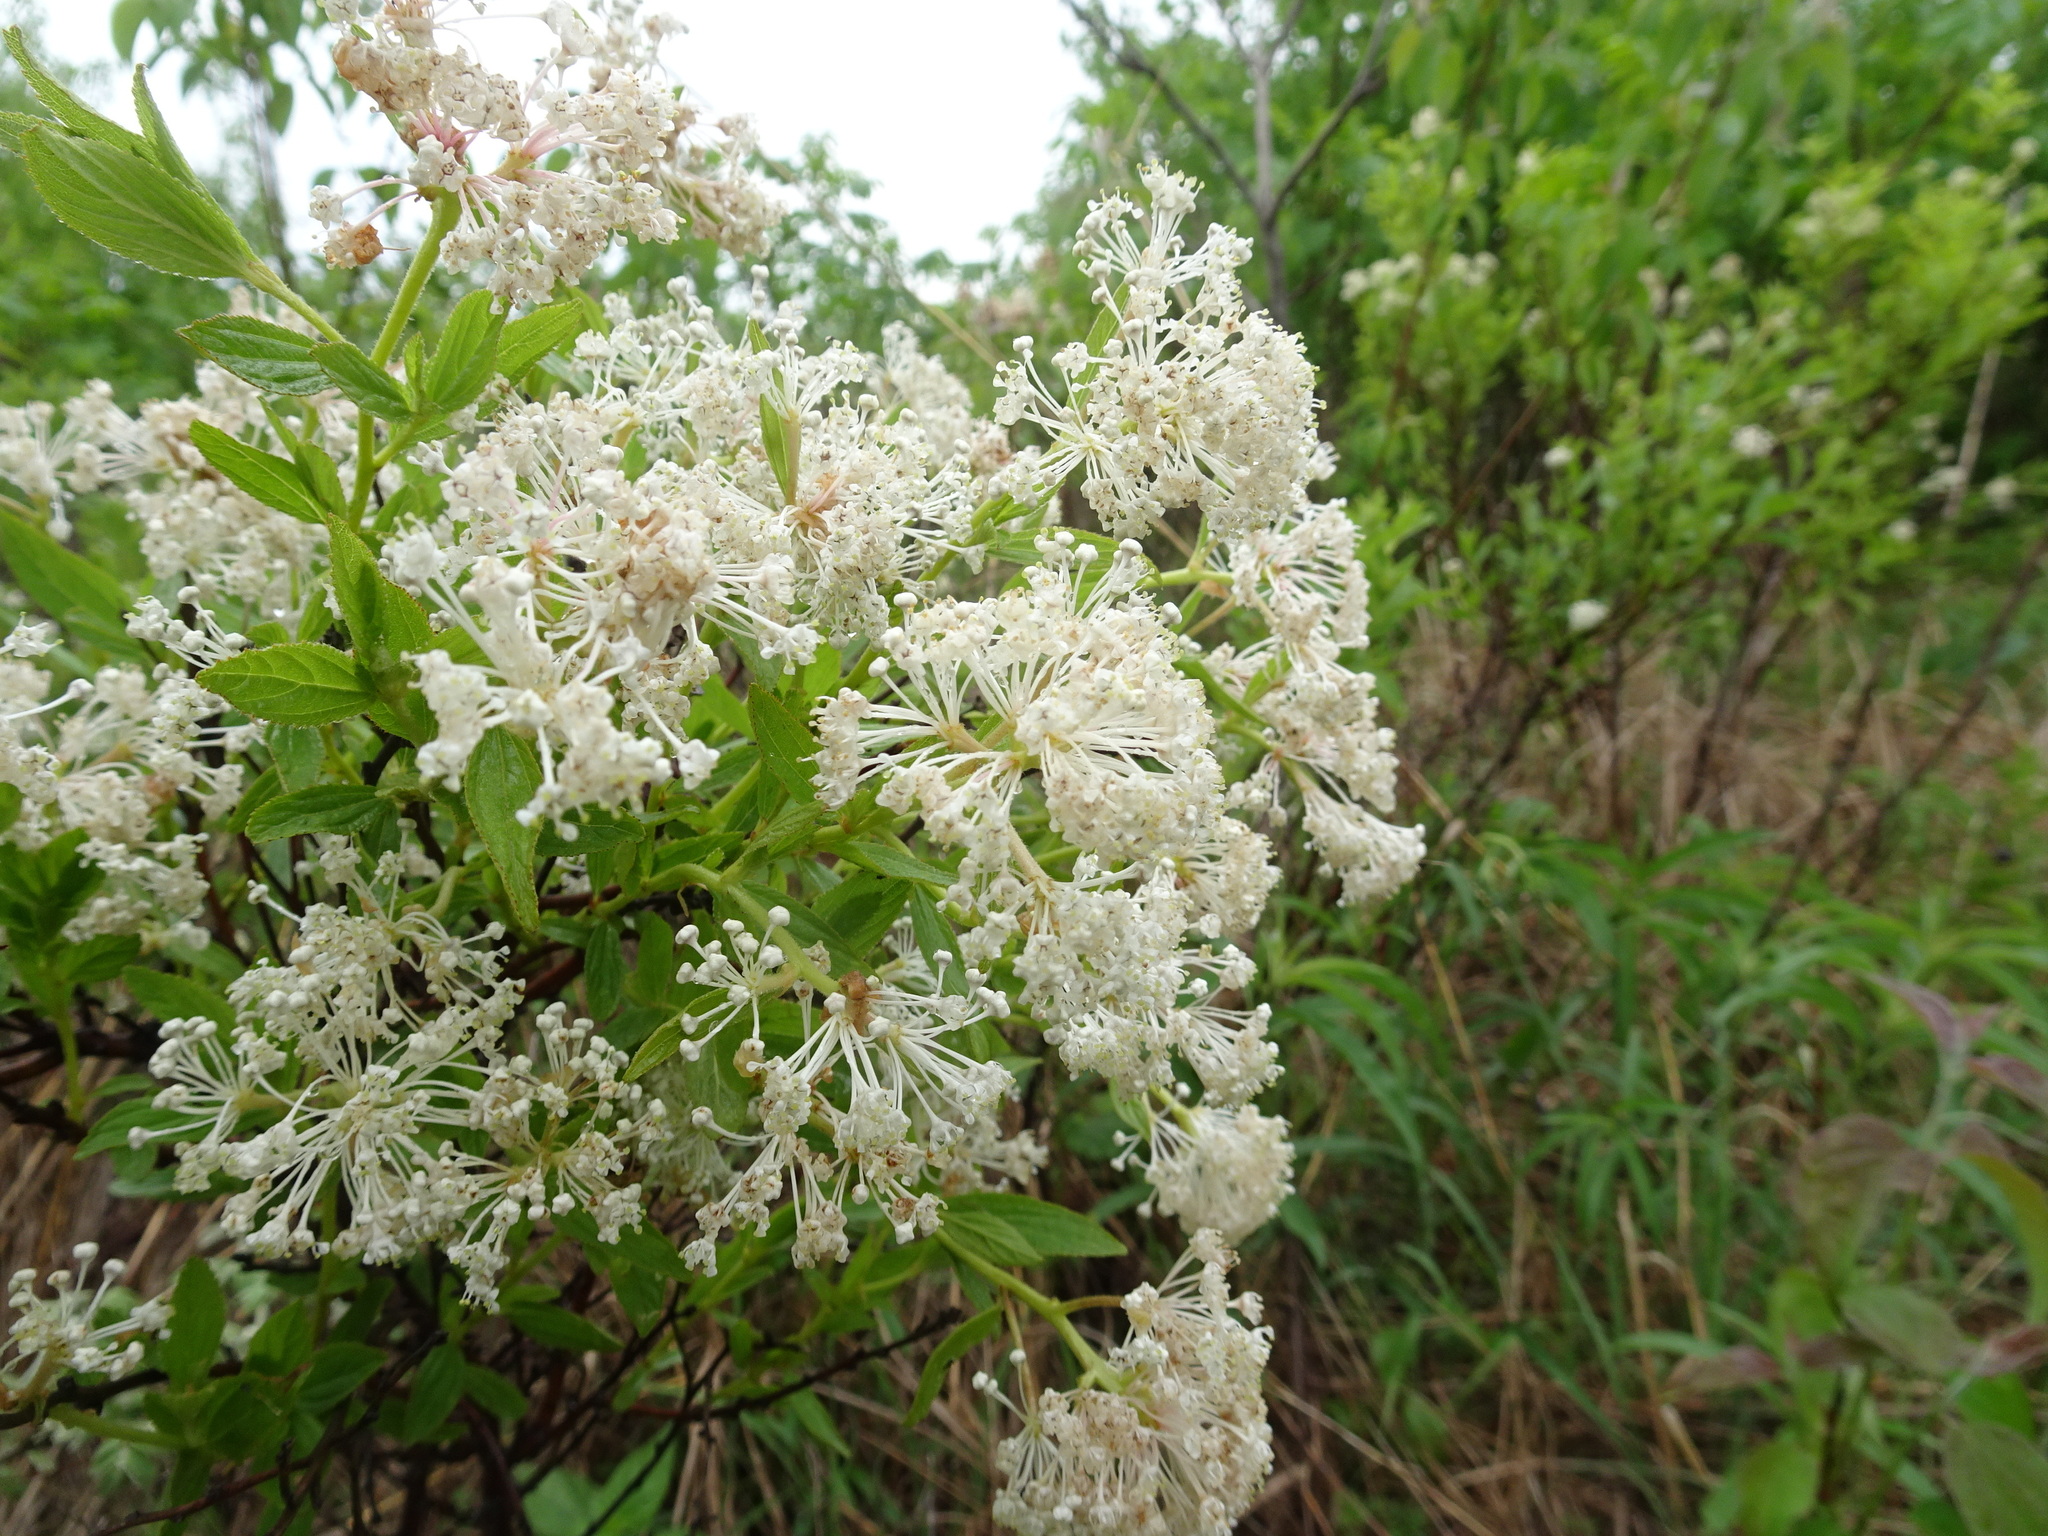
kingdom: Plantae
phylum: Tracheophyta
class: Magnoliopsida
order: Rosales
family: Rhamnaceae
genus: Ceanothus
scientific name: Ceanothus herbaceus
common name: Inland ceanothus
